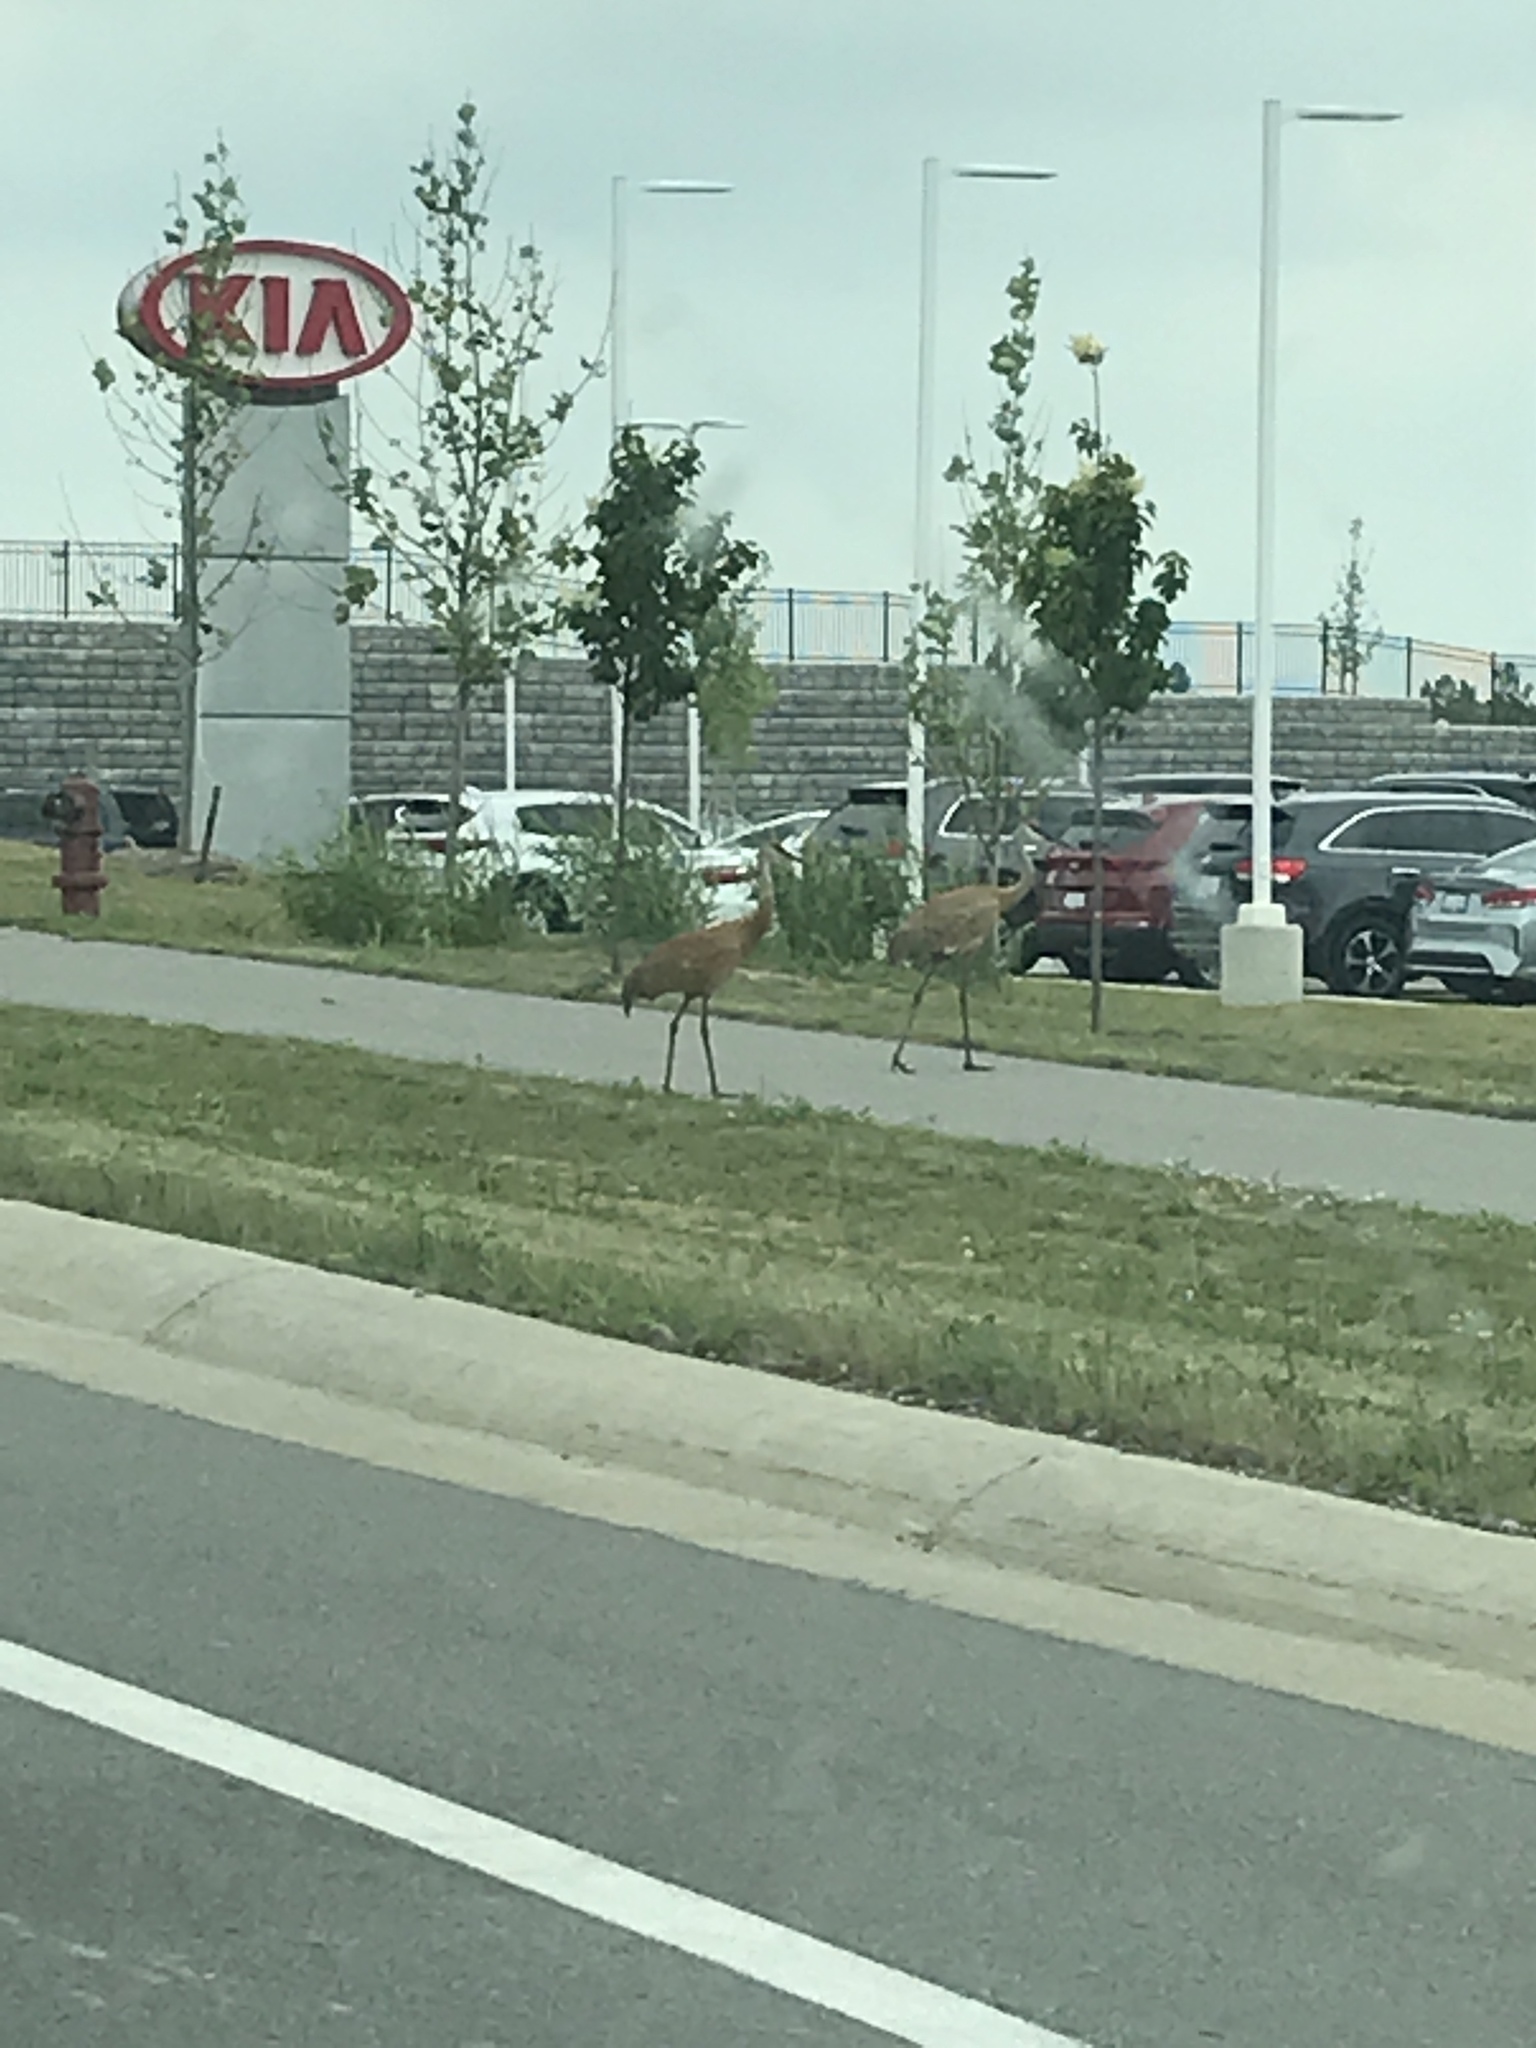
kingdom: Animalia
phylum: Chordata
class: Aves
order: Gruiformes
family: Gruidae
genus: Grus
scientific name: Grus canadensis
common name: Sandhill crane
